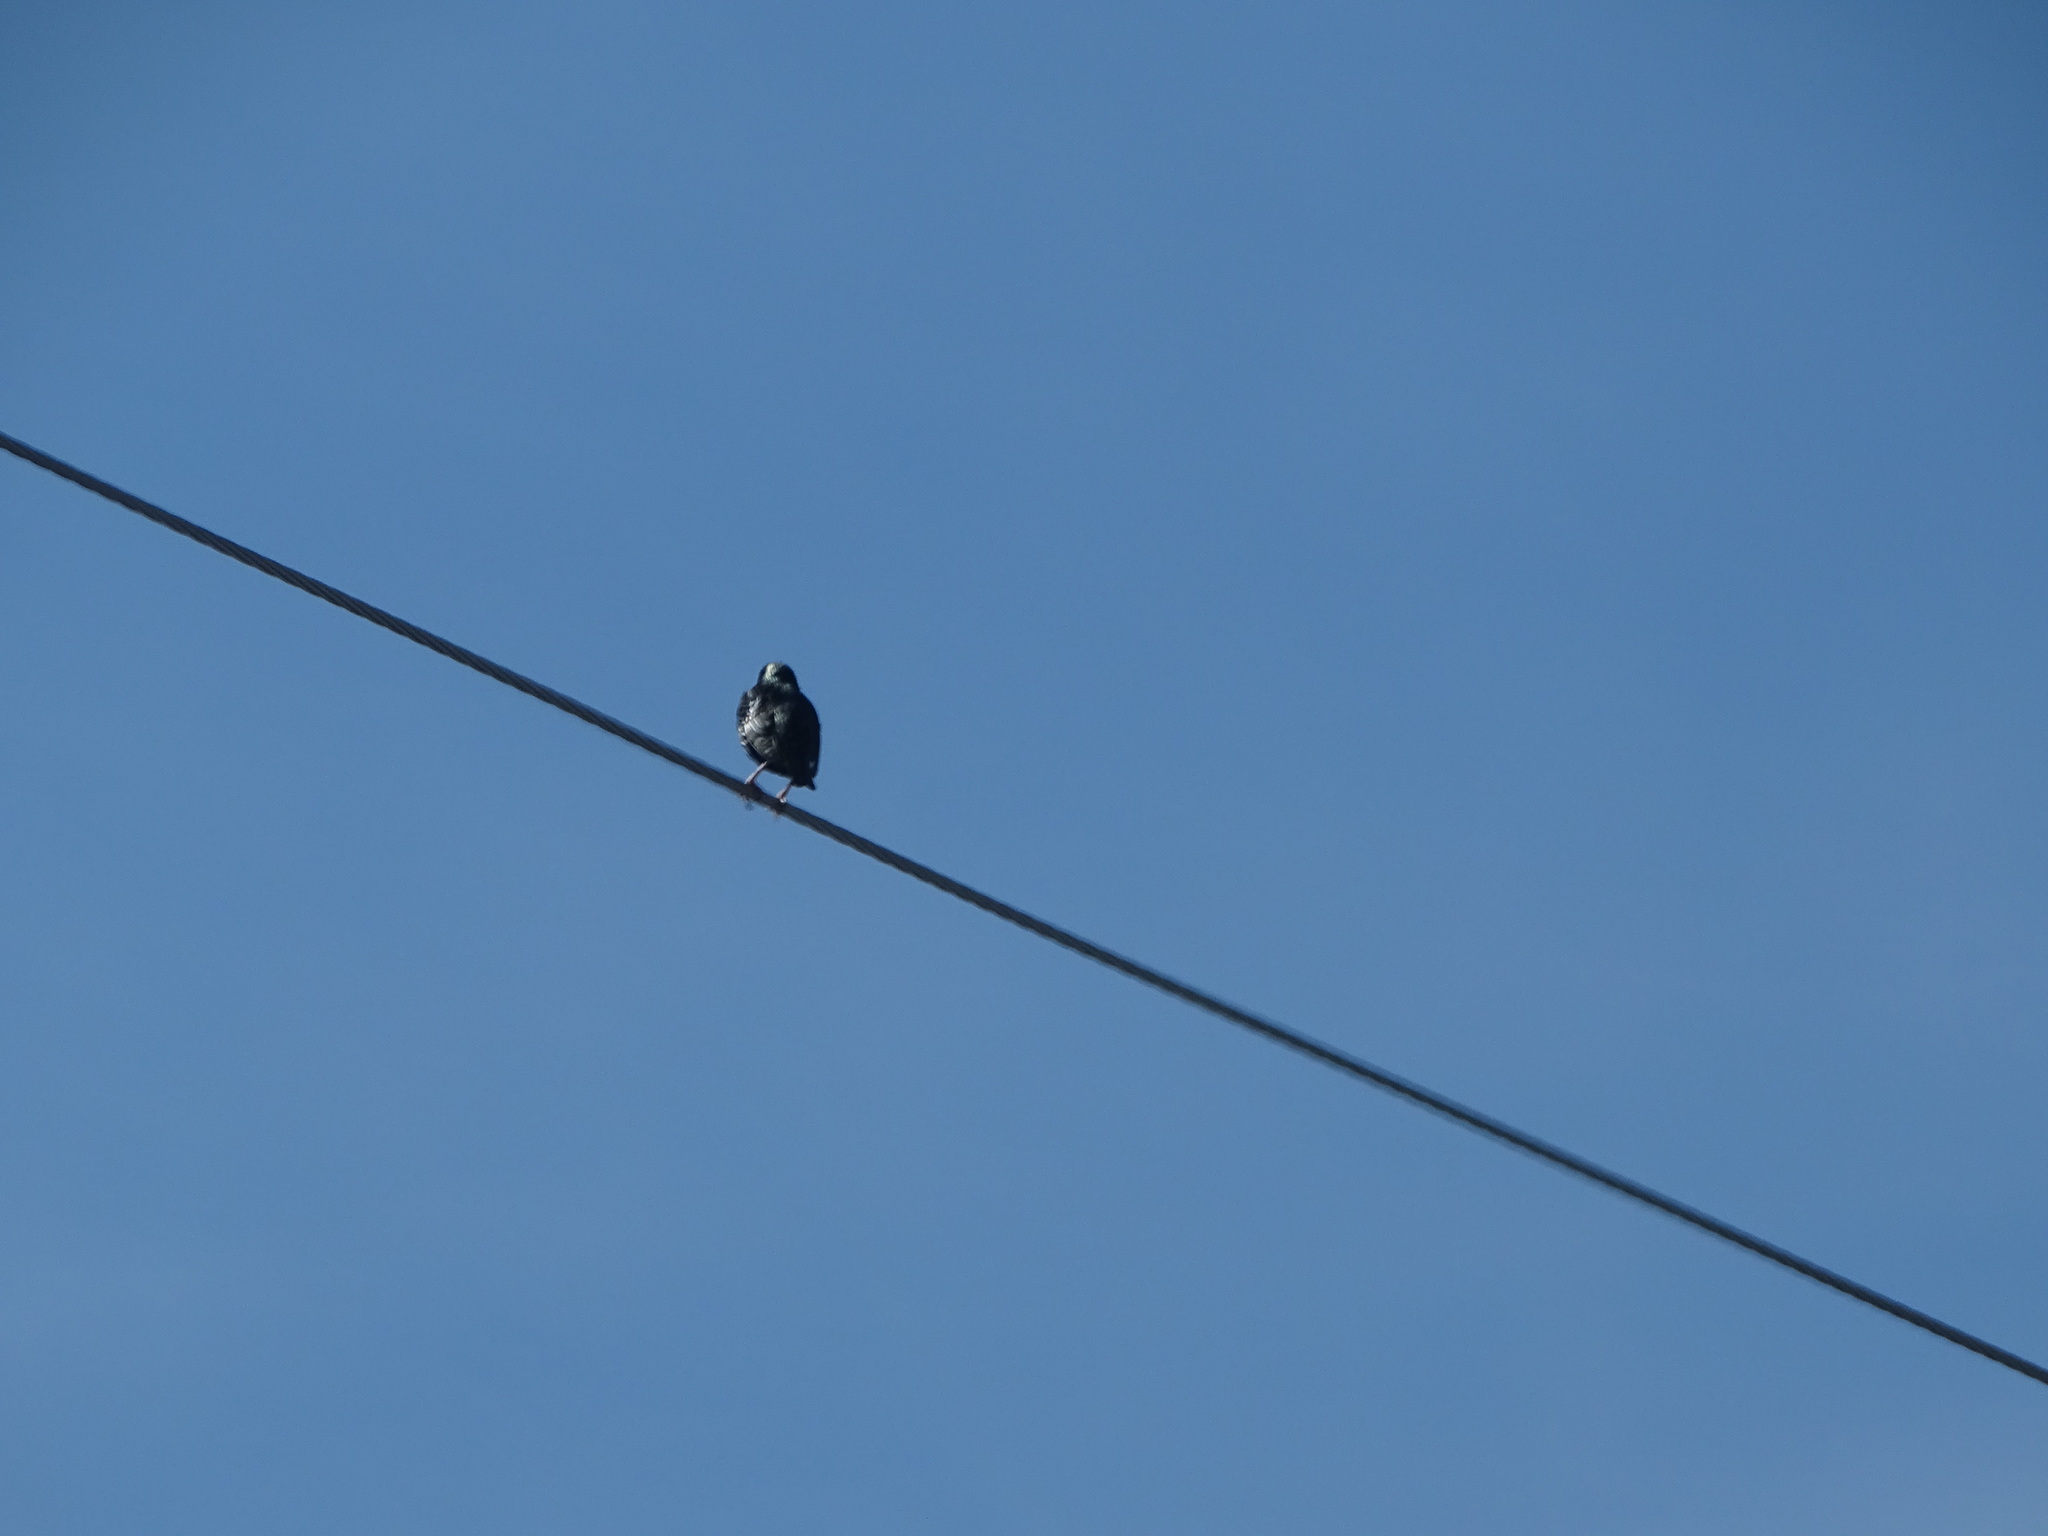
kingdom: Animalia
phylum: Chordata
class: Aves
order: Passeriformes
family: Sturnidae
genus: Sturnus
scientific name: Sturnus vulgaris
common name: Common starling
